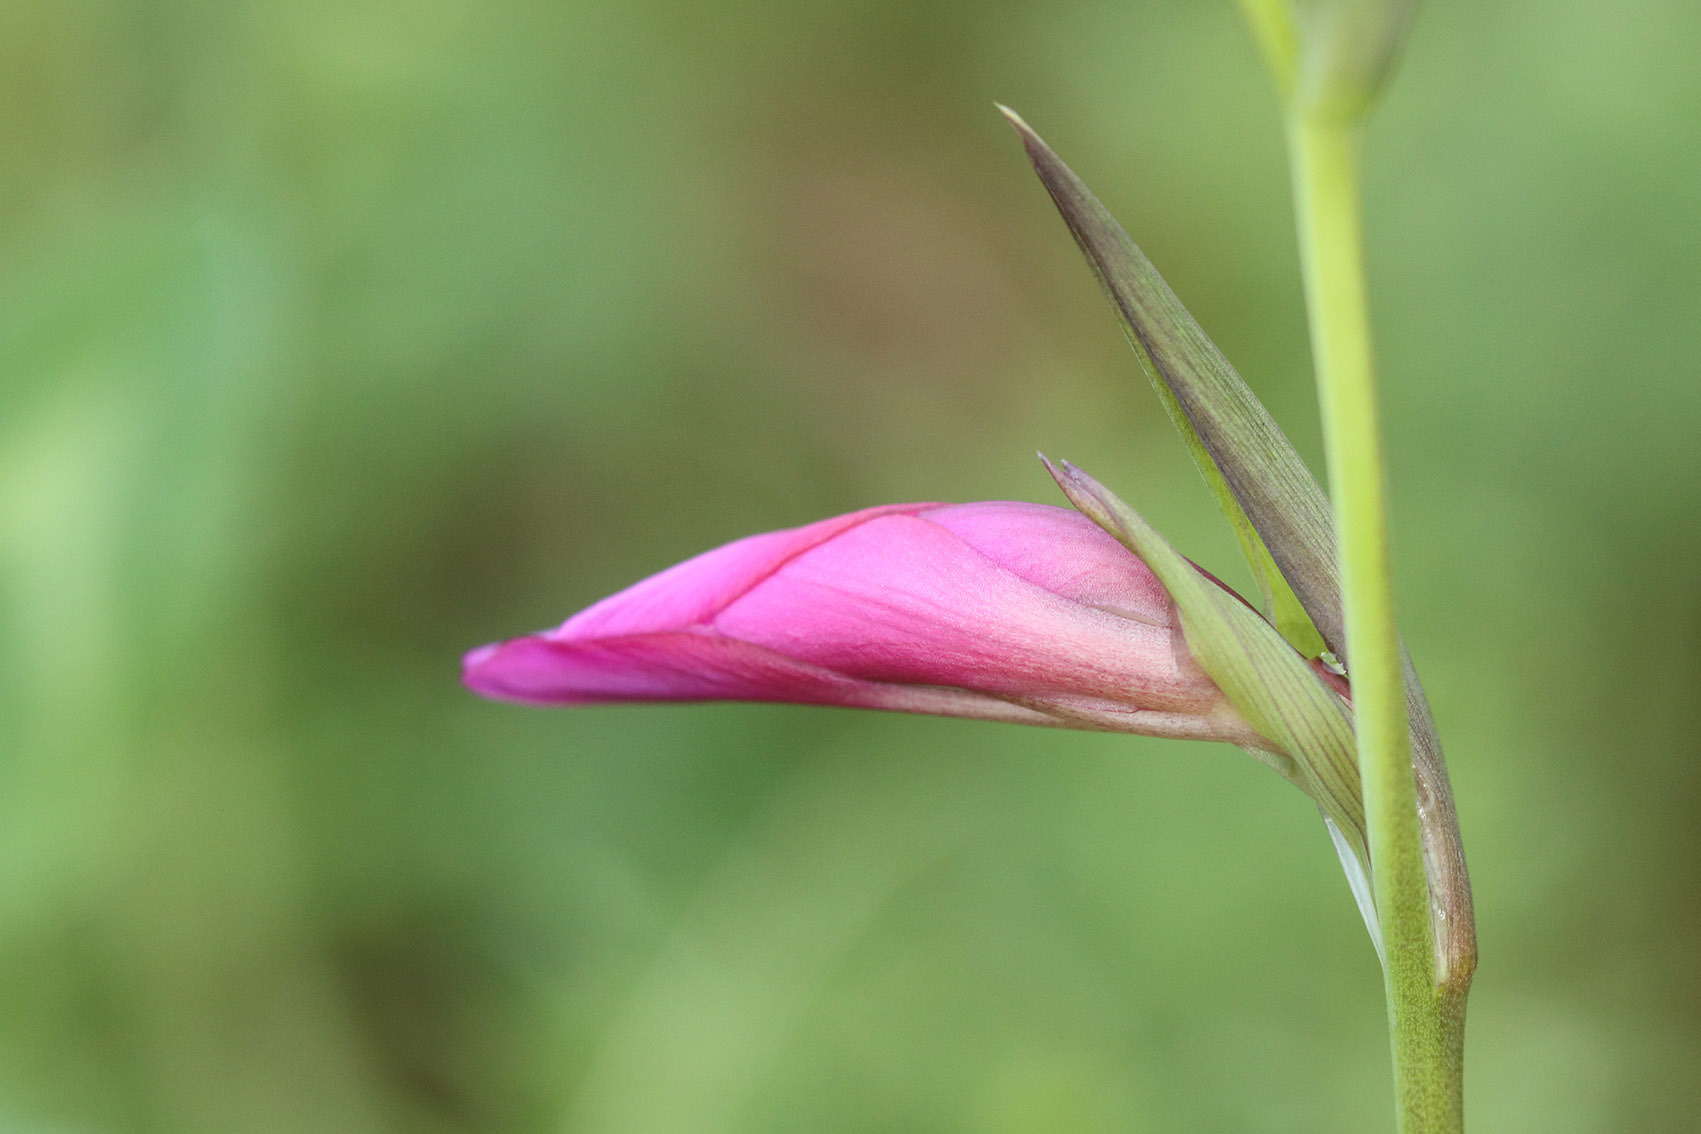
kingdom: Plantae
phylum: Tracheophyta
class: Liliopsida
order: Asparagales
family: Iridaceae
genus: Gladiolus
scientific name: Gladiolus communis
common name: Eastern gladiolus
